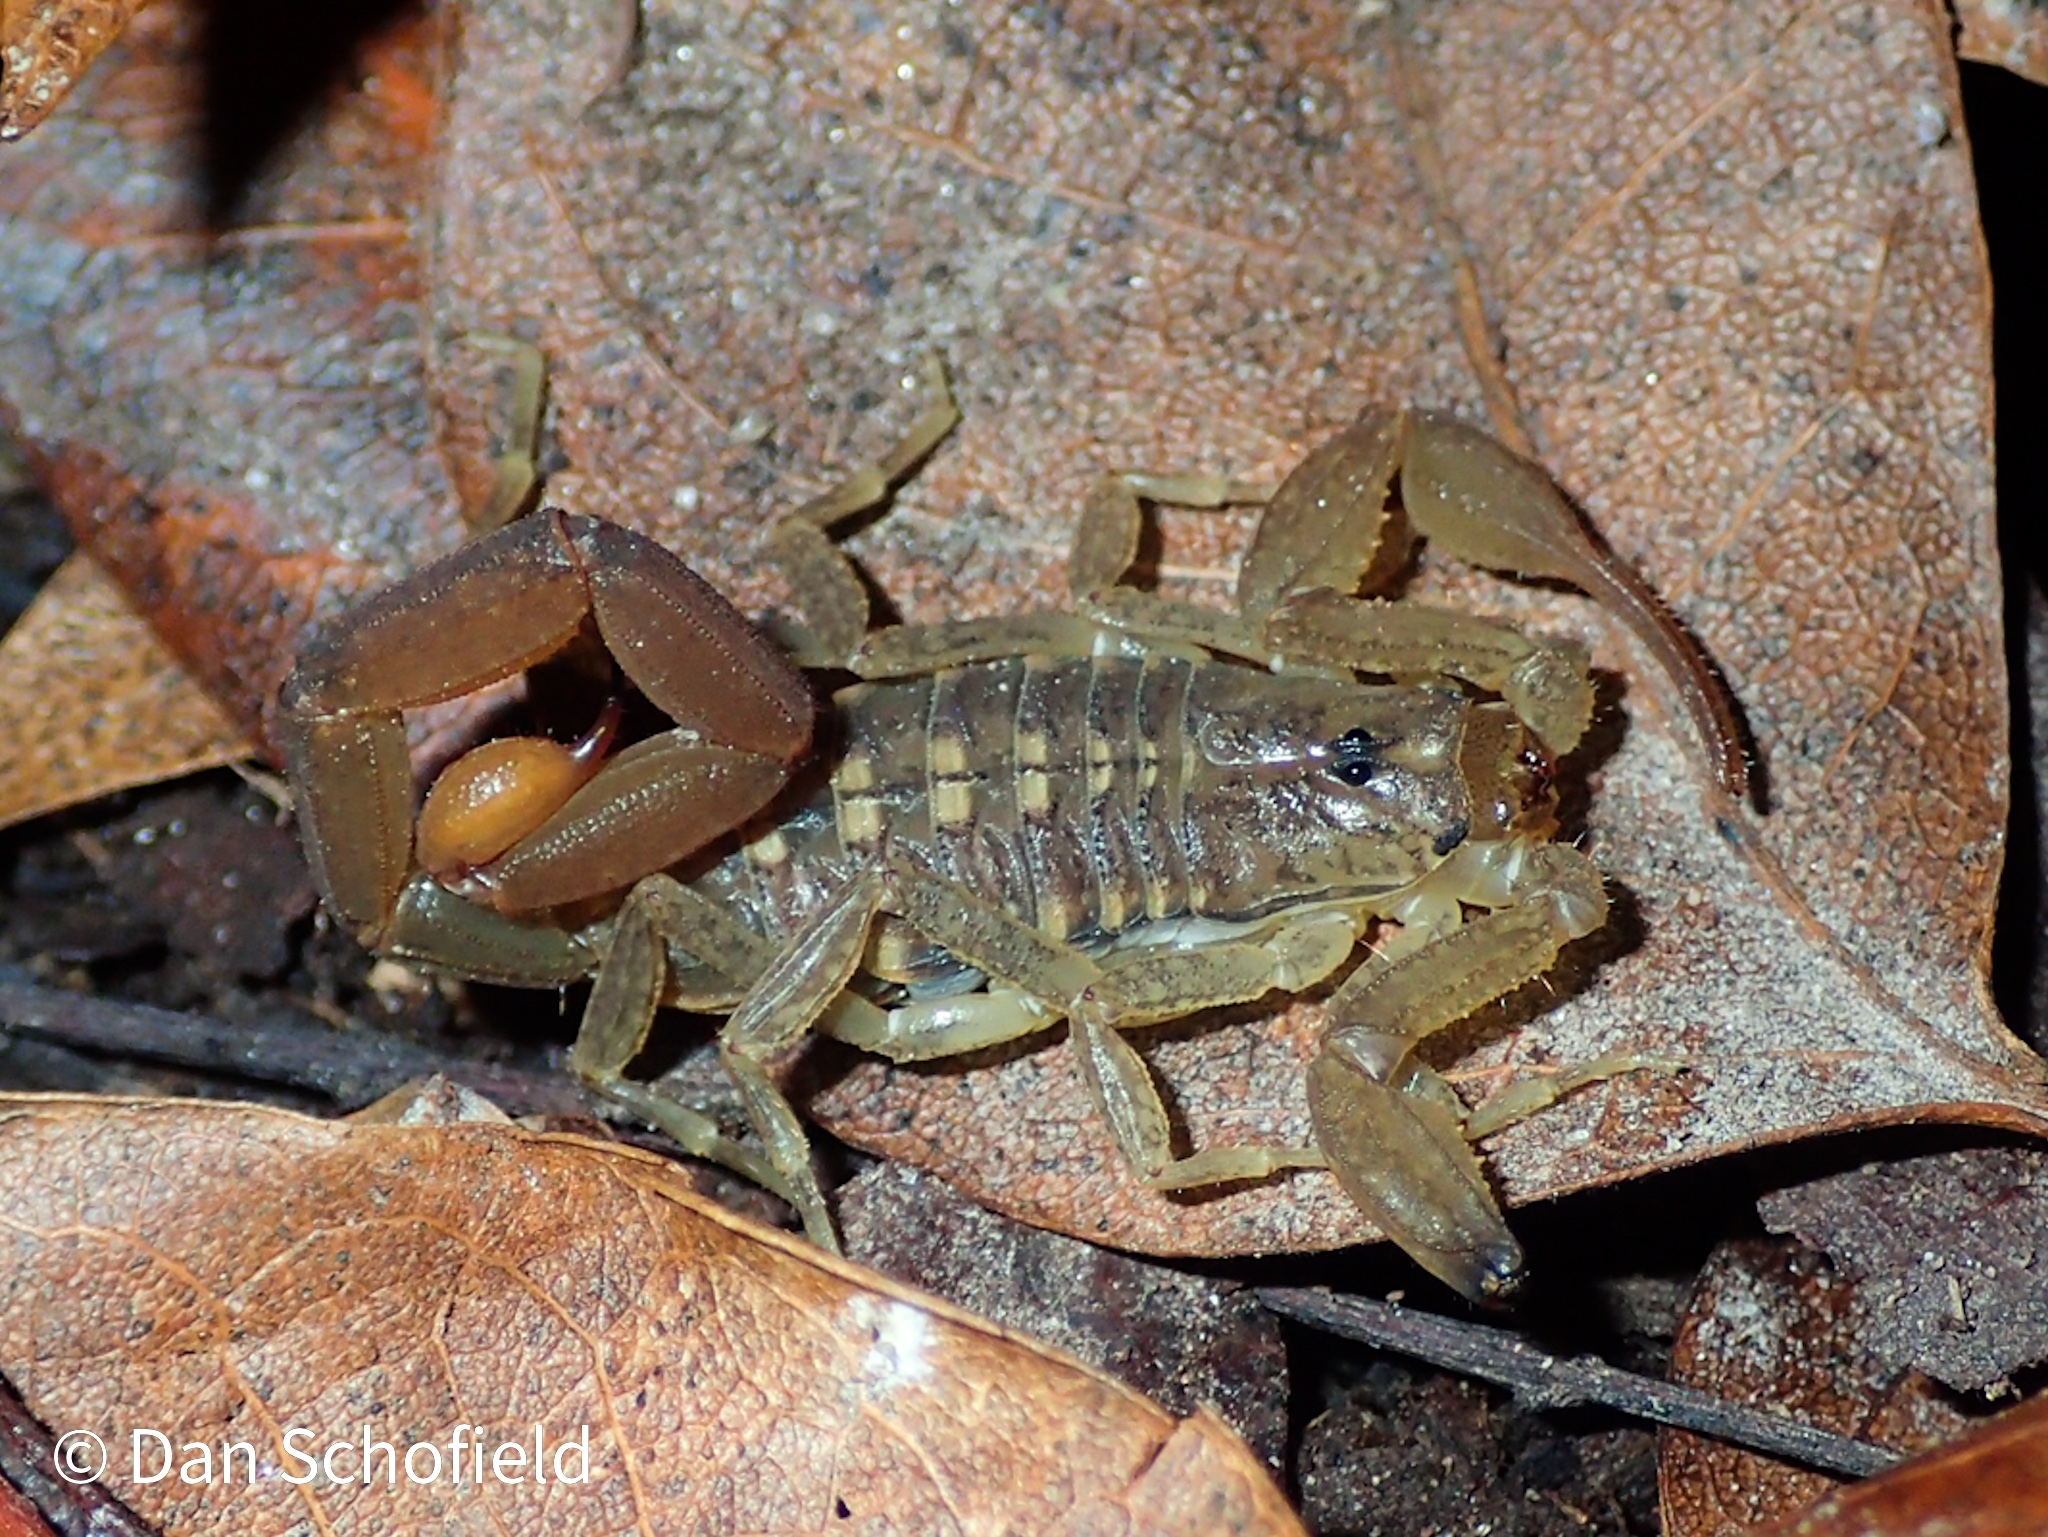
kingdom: Animalia
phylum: Arthropoda
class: Arachnida
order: Scorpiones
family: Buthidae
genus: Centruroides
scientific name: Centruroides barbudensis
